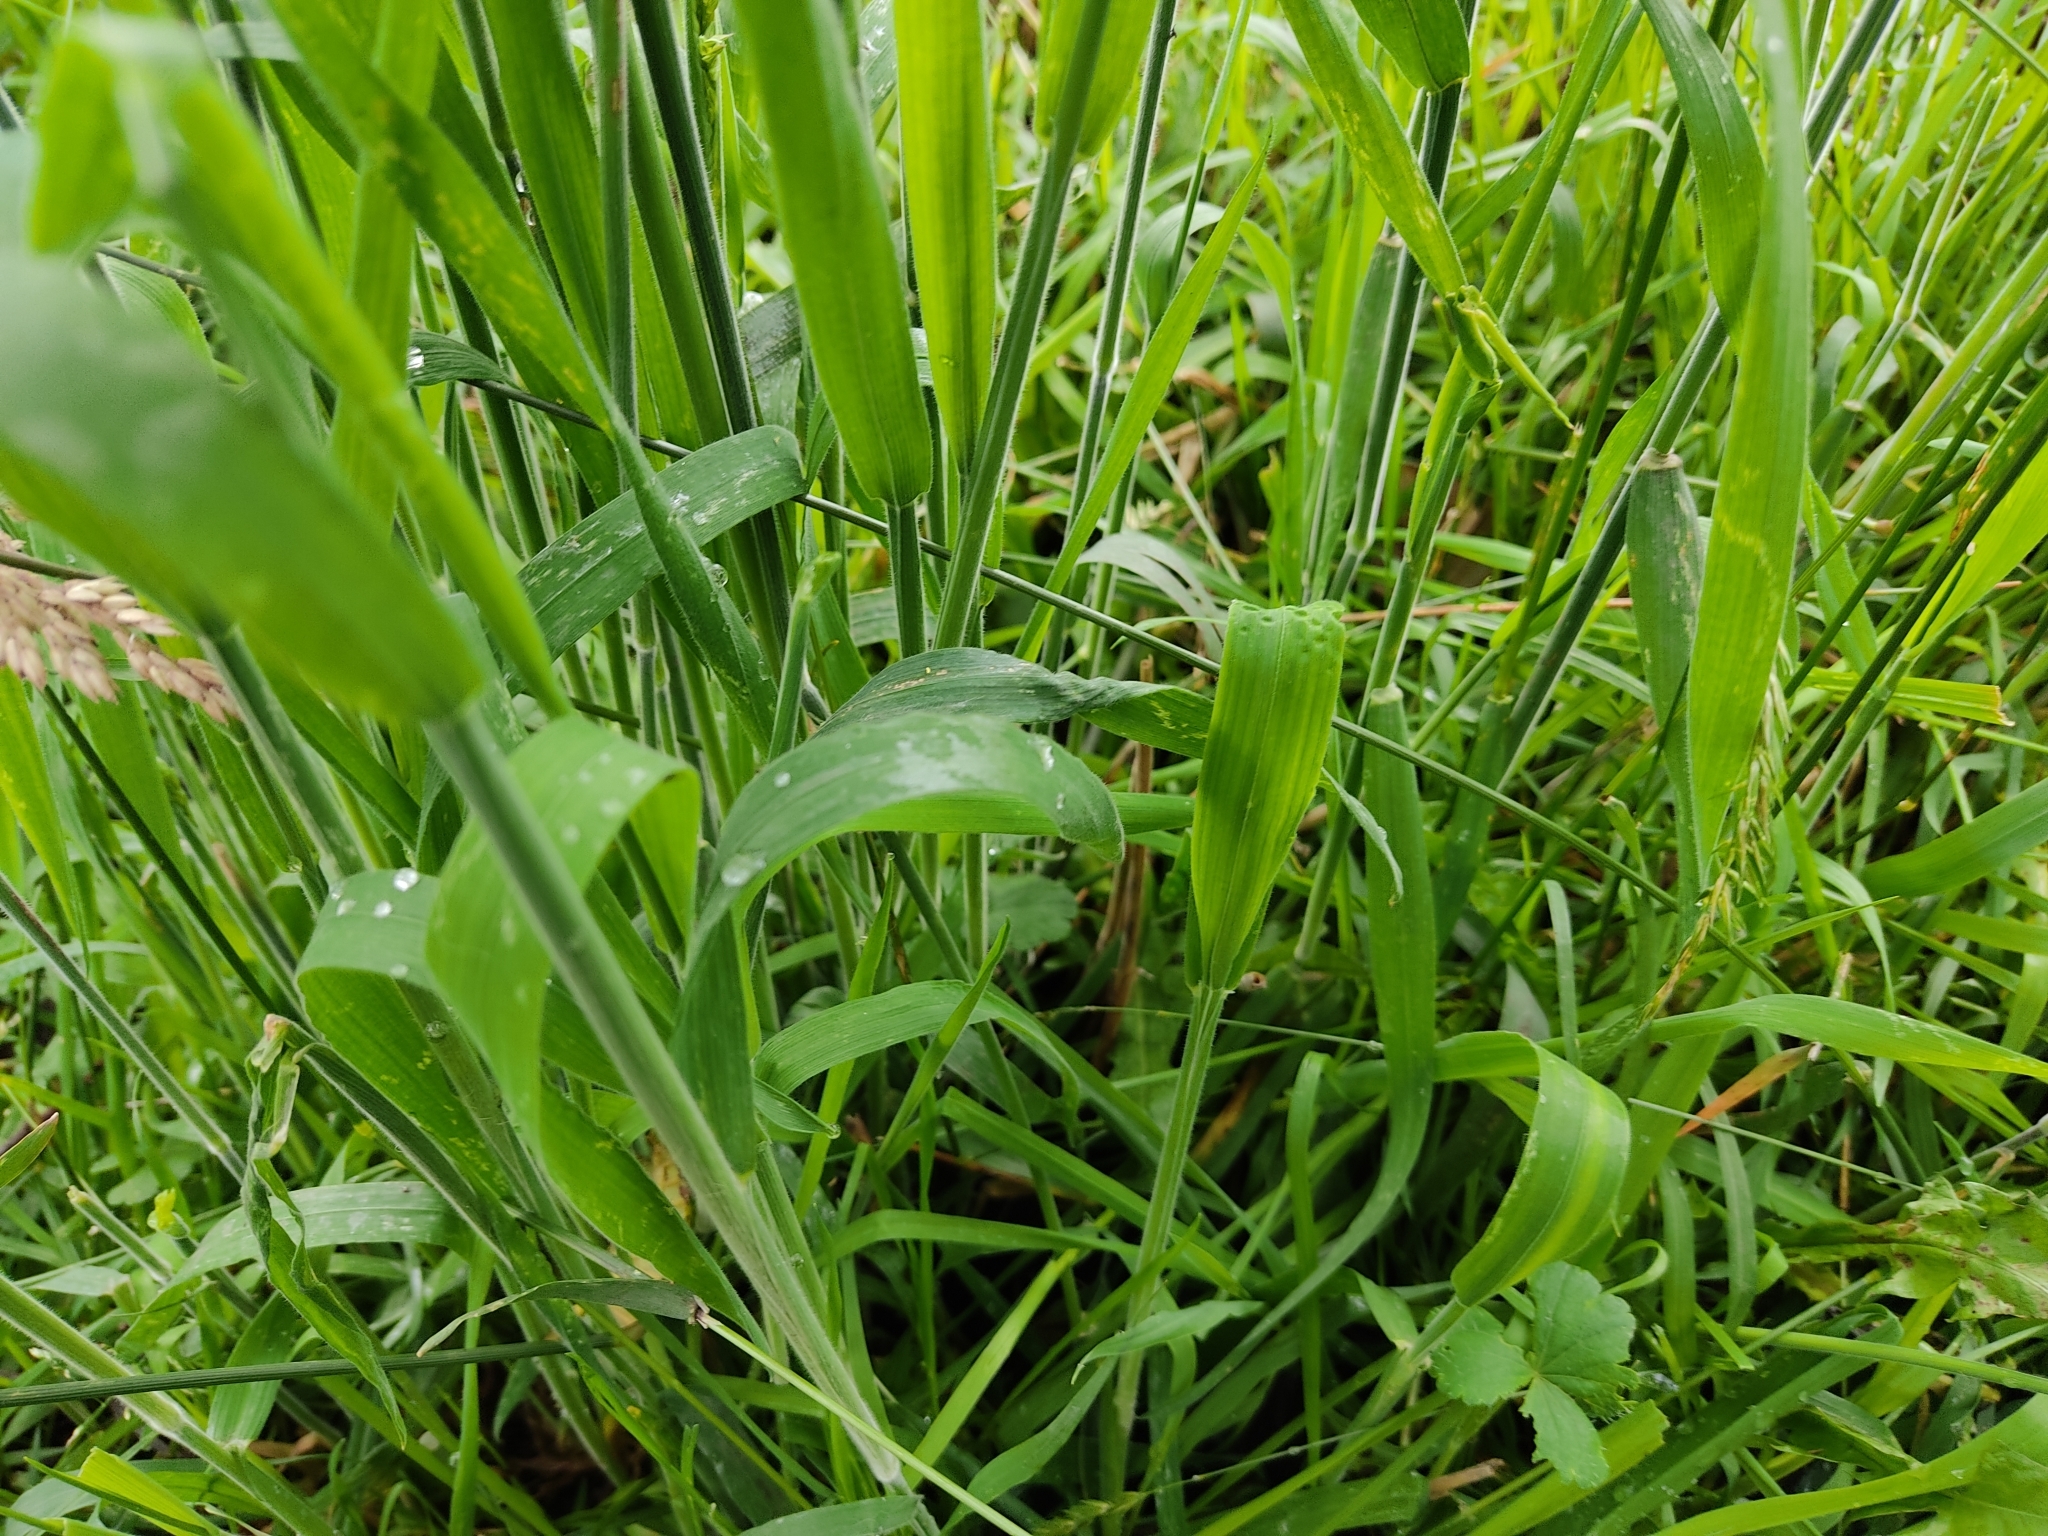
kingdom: Plantae
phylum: Tracheophyta
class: Liliopsida
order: Poales
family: Poaceae
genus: Holcus
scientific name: Holcus lanatus
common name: Yorkshire-fog
